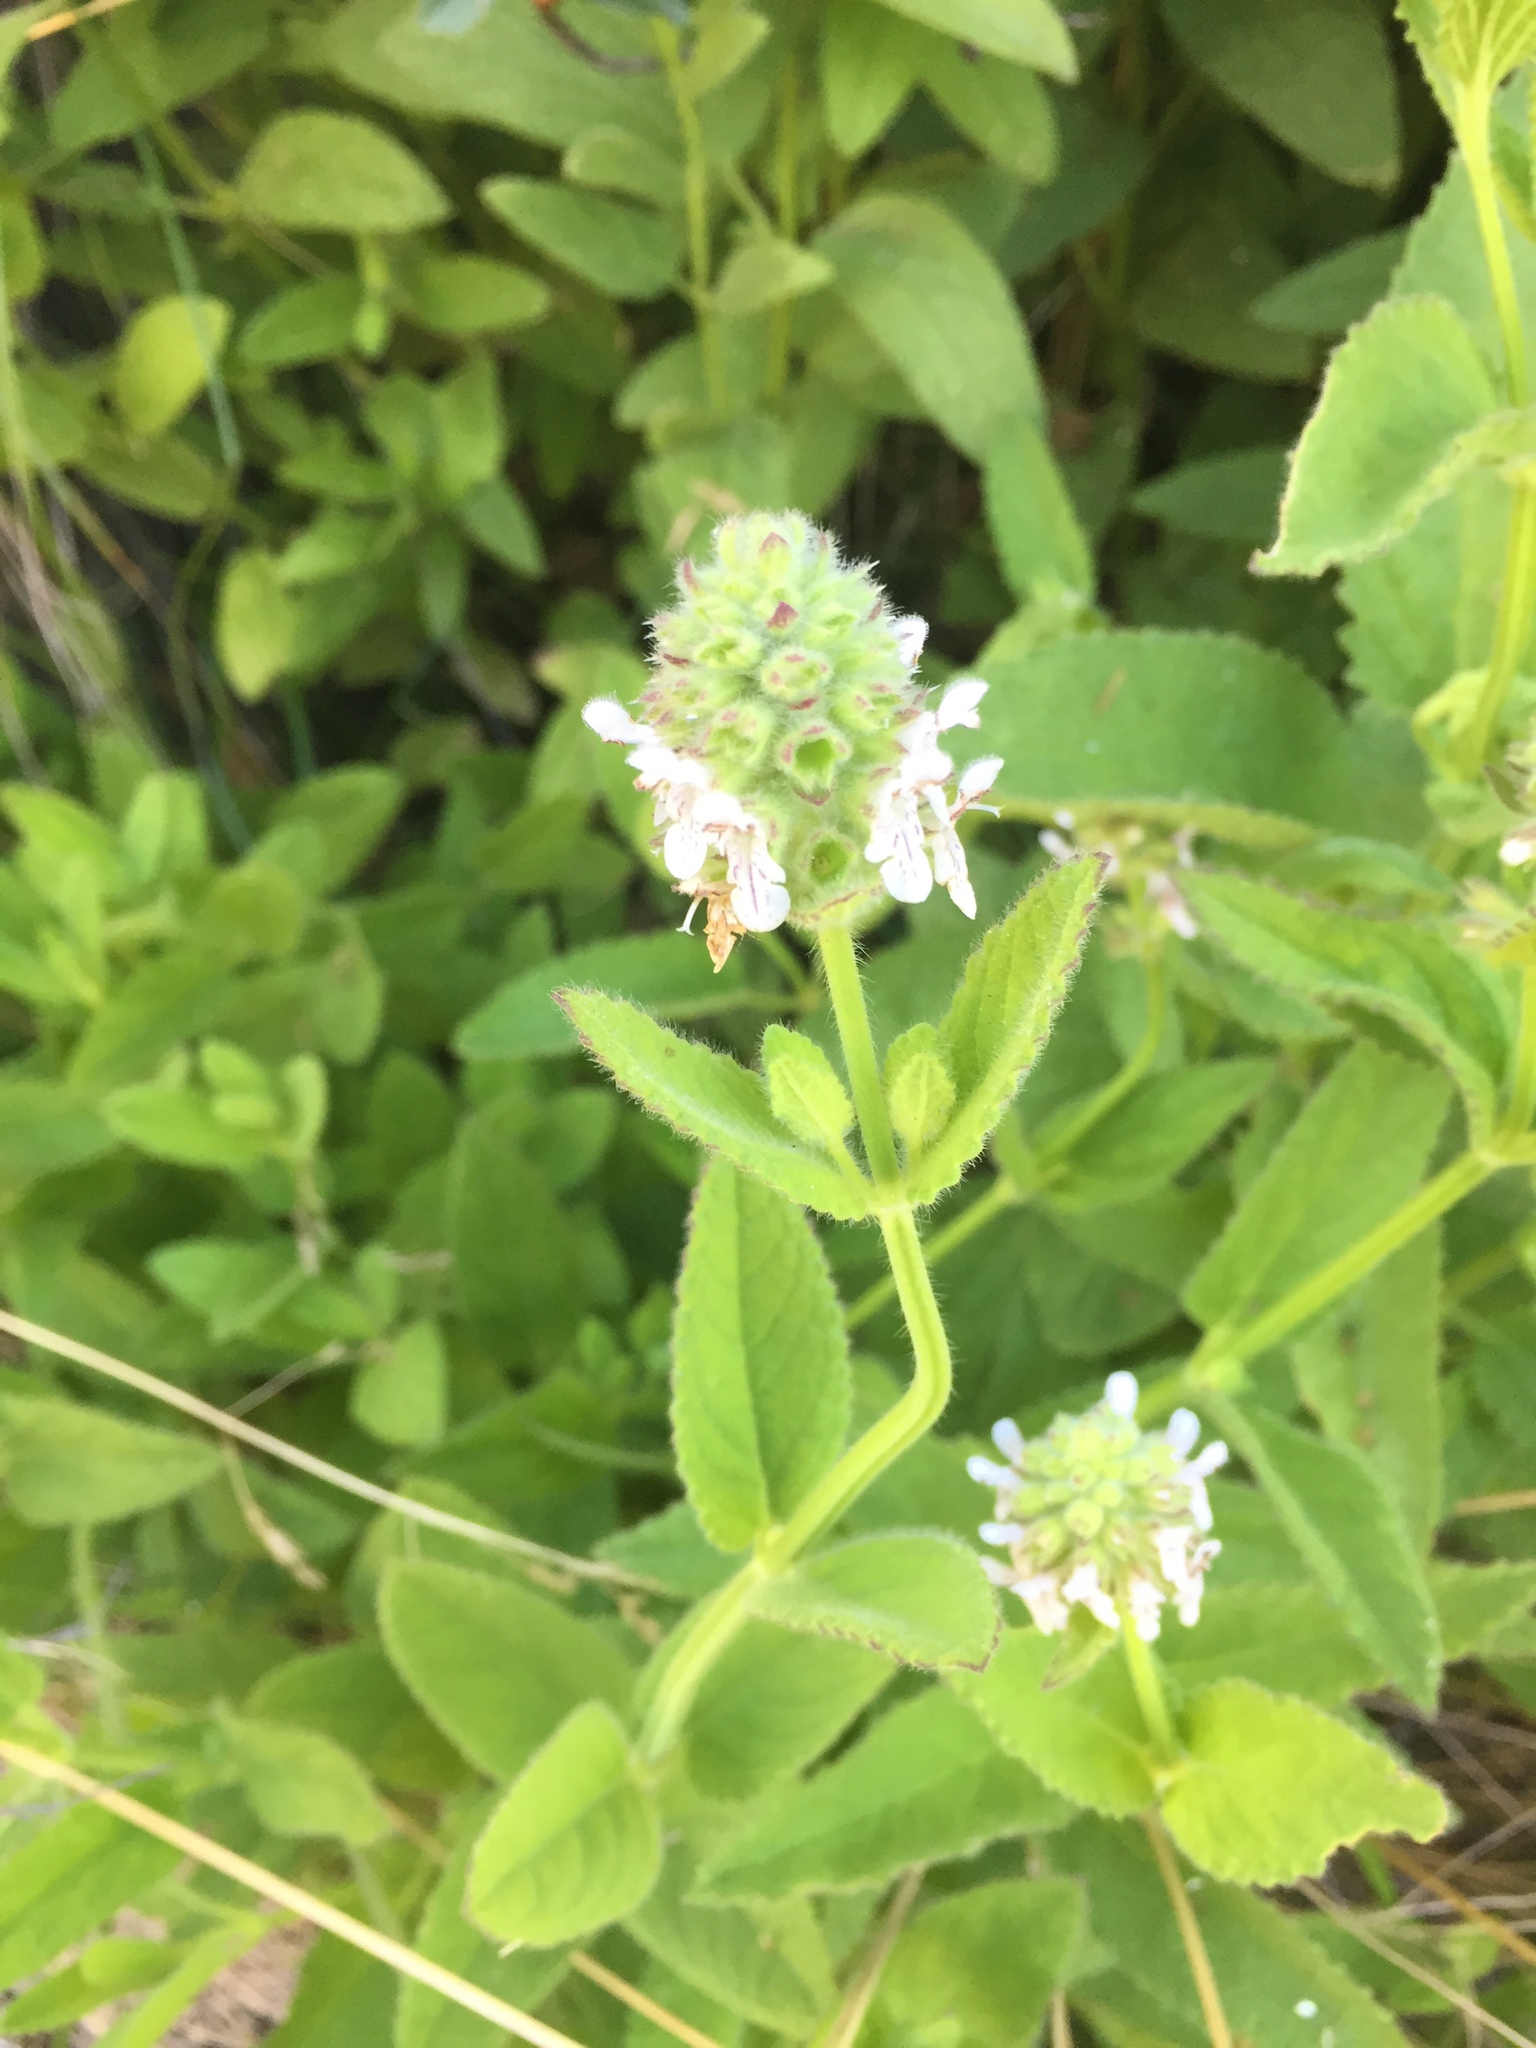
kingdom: Plantae
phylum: Tracheophyta
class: Magnoliopsida
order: Lamiales
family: Lamiaceae
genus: Stachys
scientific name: Stachys pycnantha
